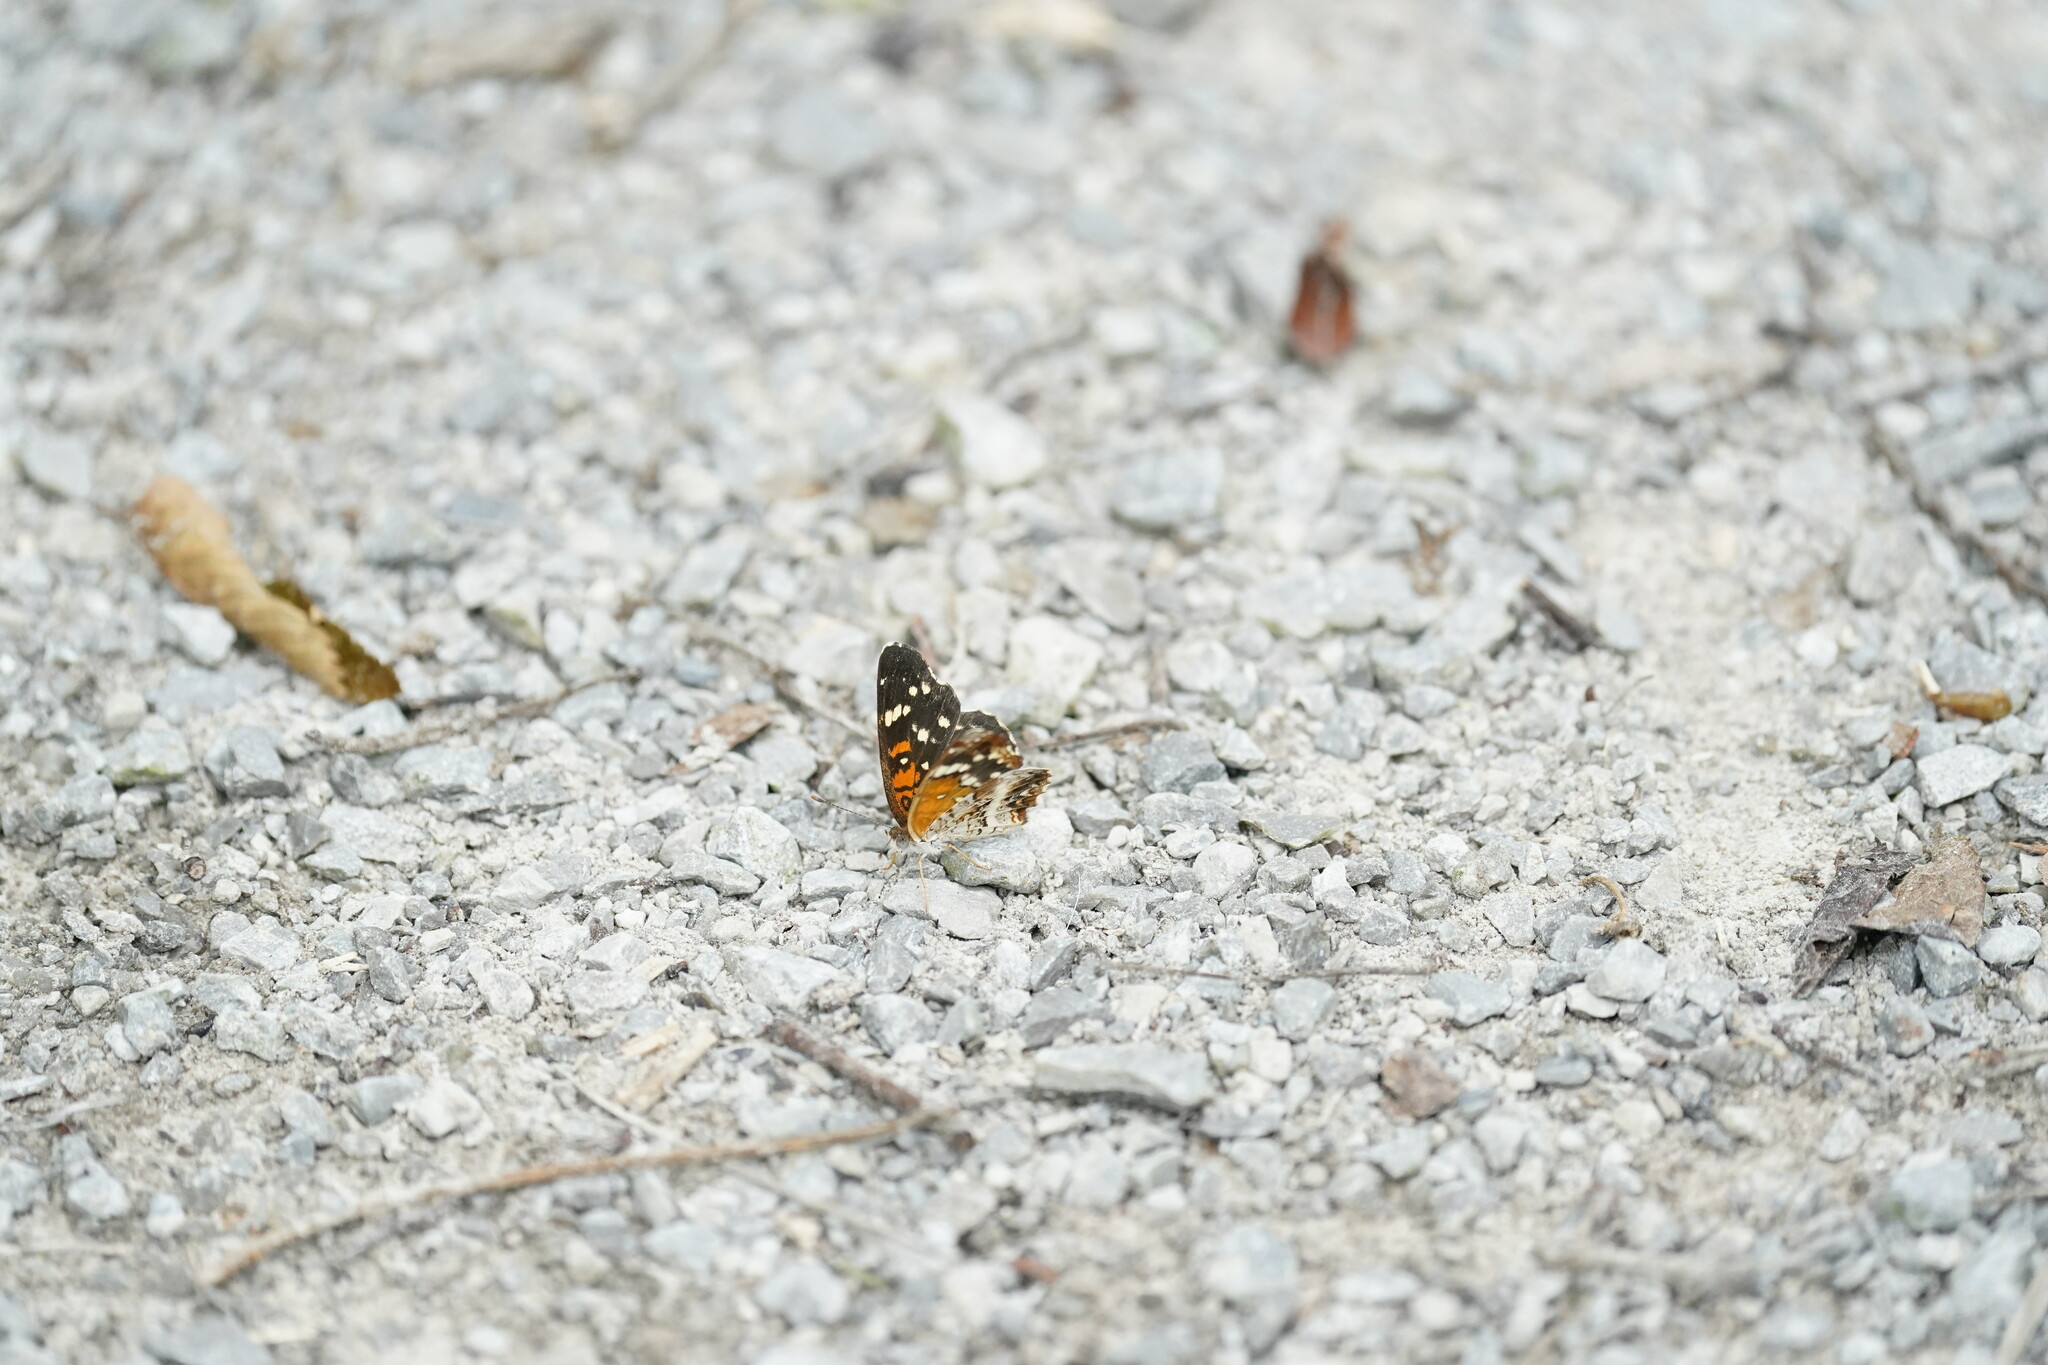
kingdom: Animalia
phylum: Arthropoda
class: Insecta
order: Lepidoptera
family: Nymphalidae
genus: Anthanassa
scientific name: Anthanassa taxana
